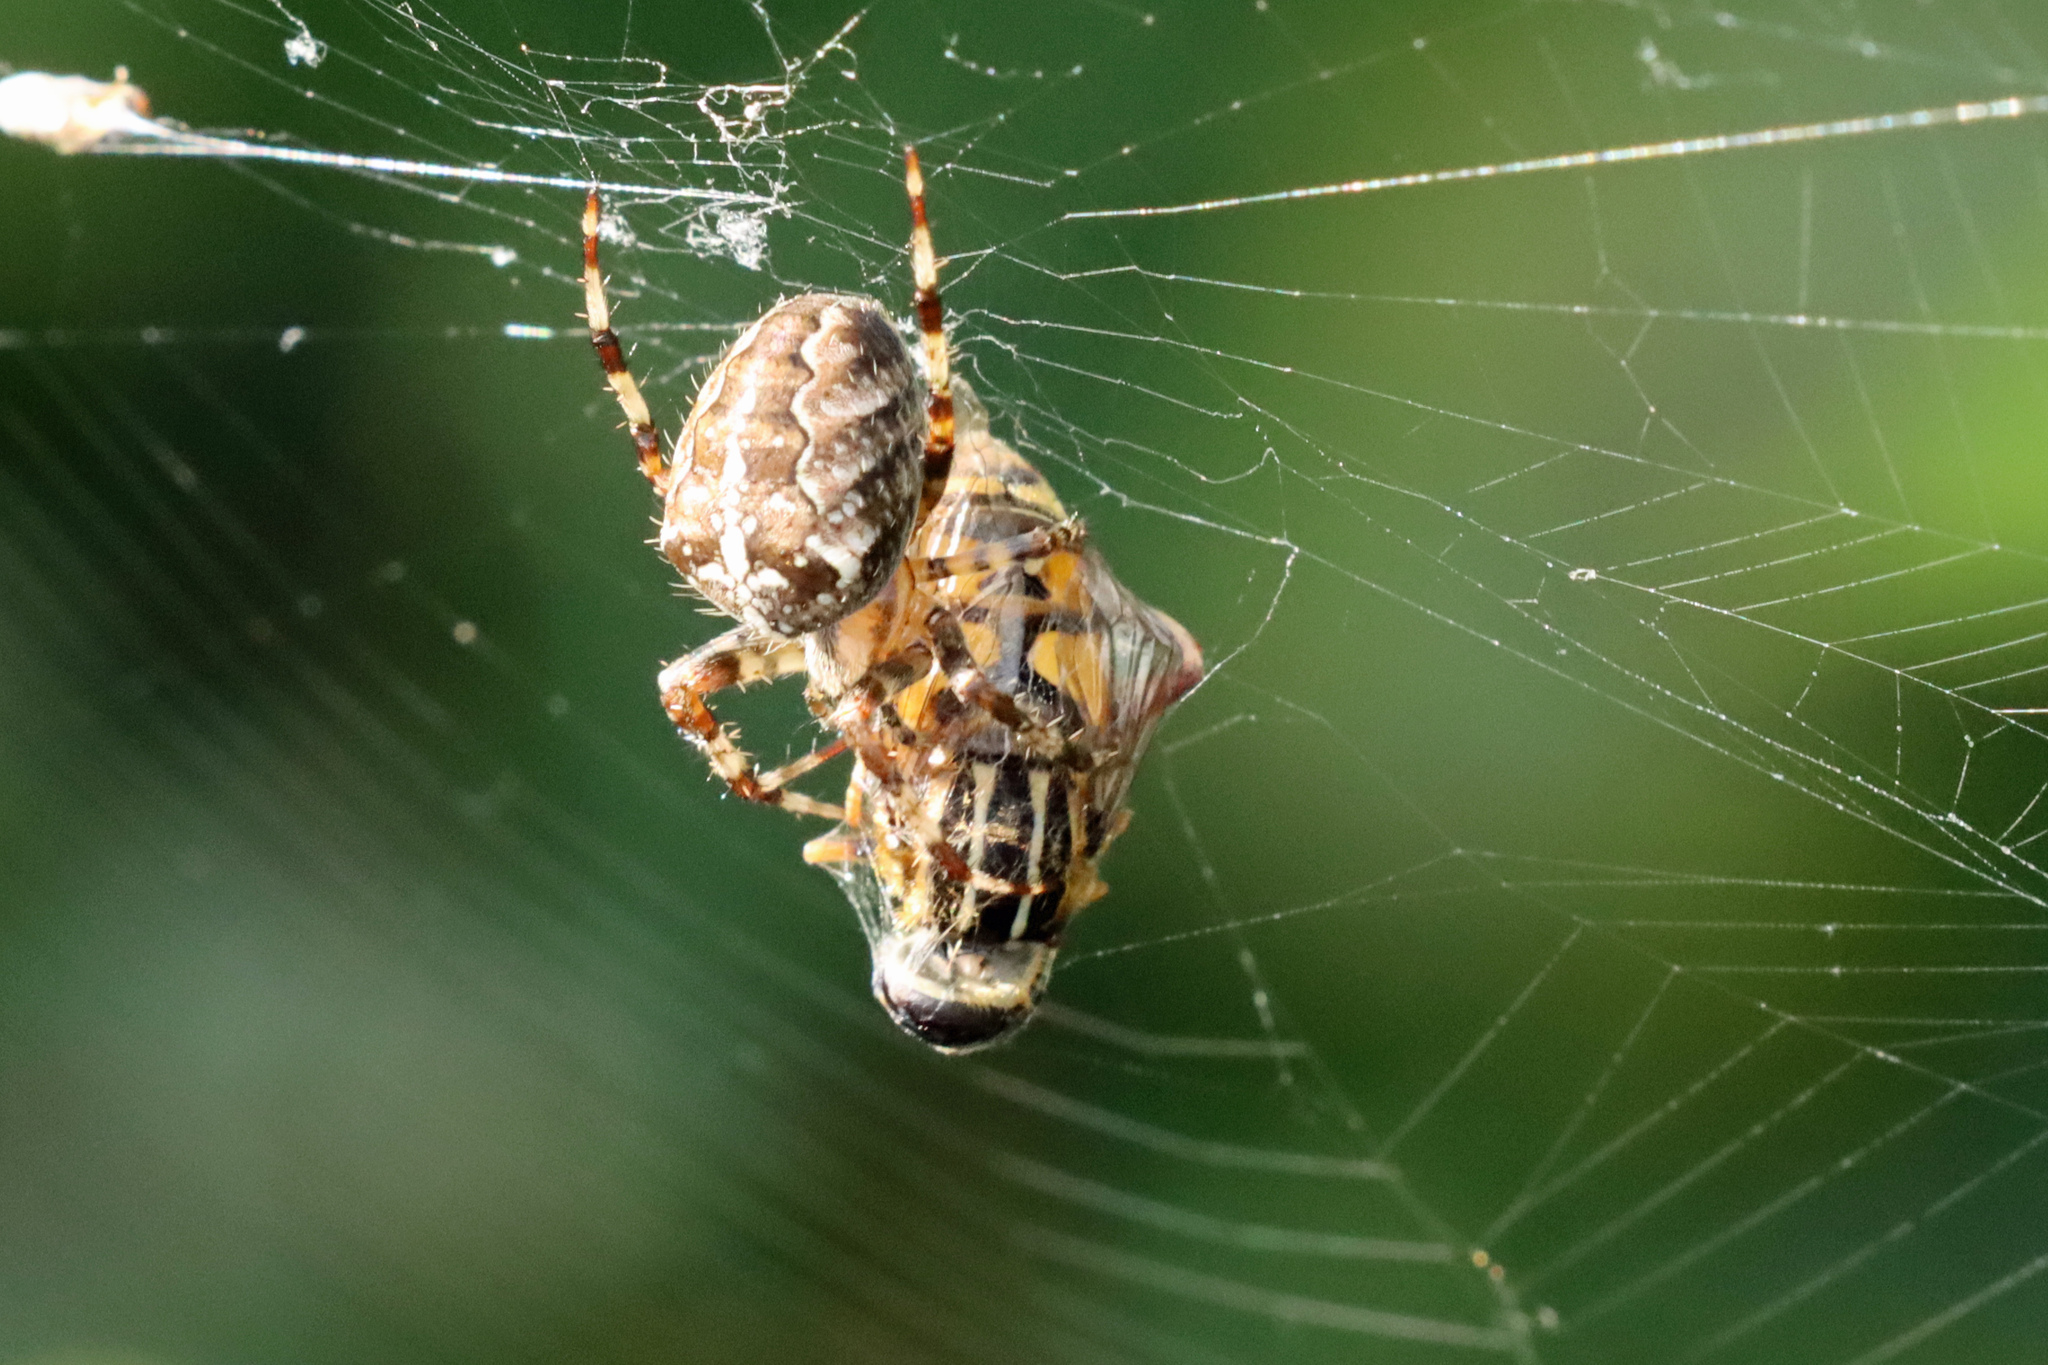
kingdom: Animalia
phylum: Arthropoda
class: Arachnida
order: Araneae
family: Araneidae
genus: Araneus
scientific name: Araneus diadematus
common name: Cross orbweaver
